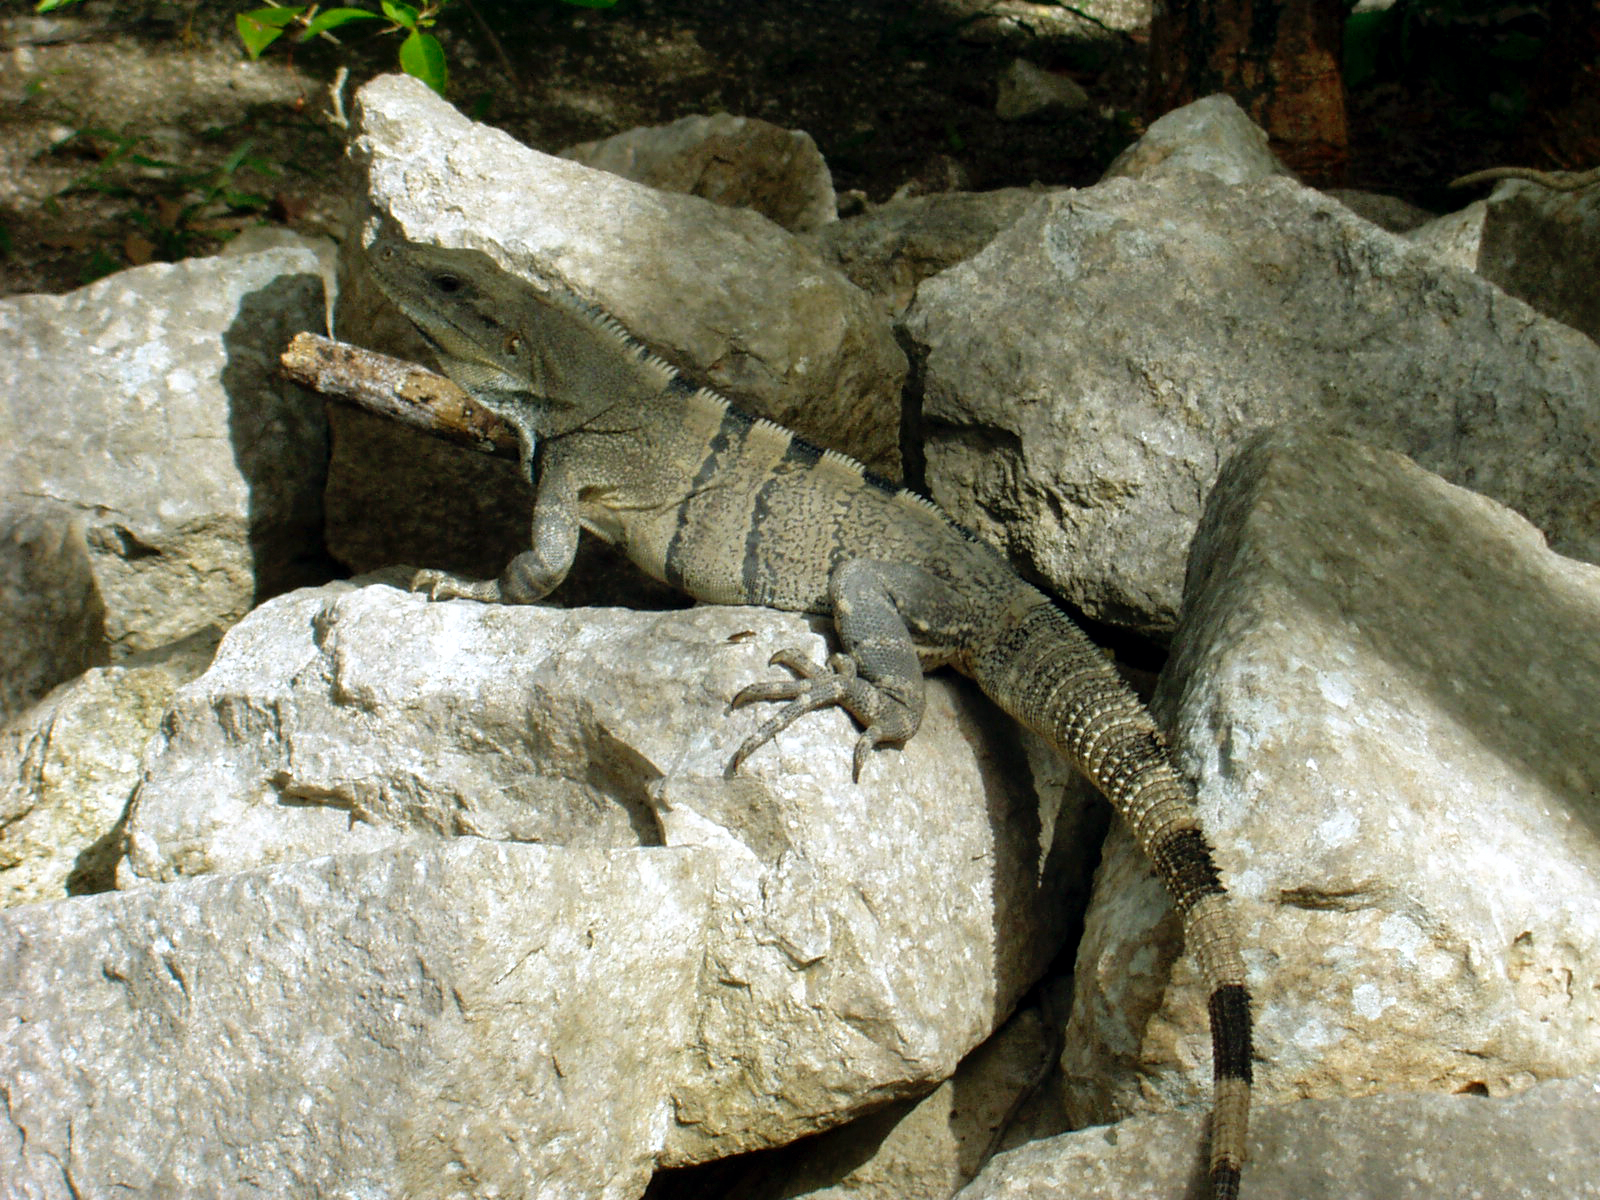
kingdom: Animalia
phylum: Chordata
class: Squamata
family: Iguanidae
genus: Ctenosaura
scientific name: Ctenosaura similis
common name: Black spiny-tailed iguana
